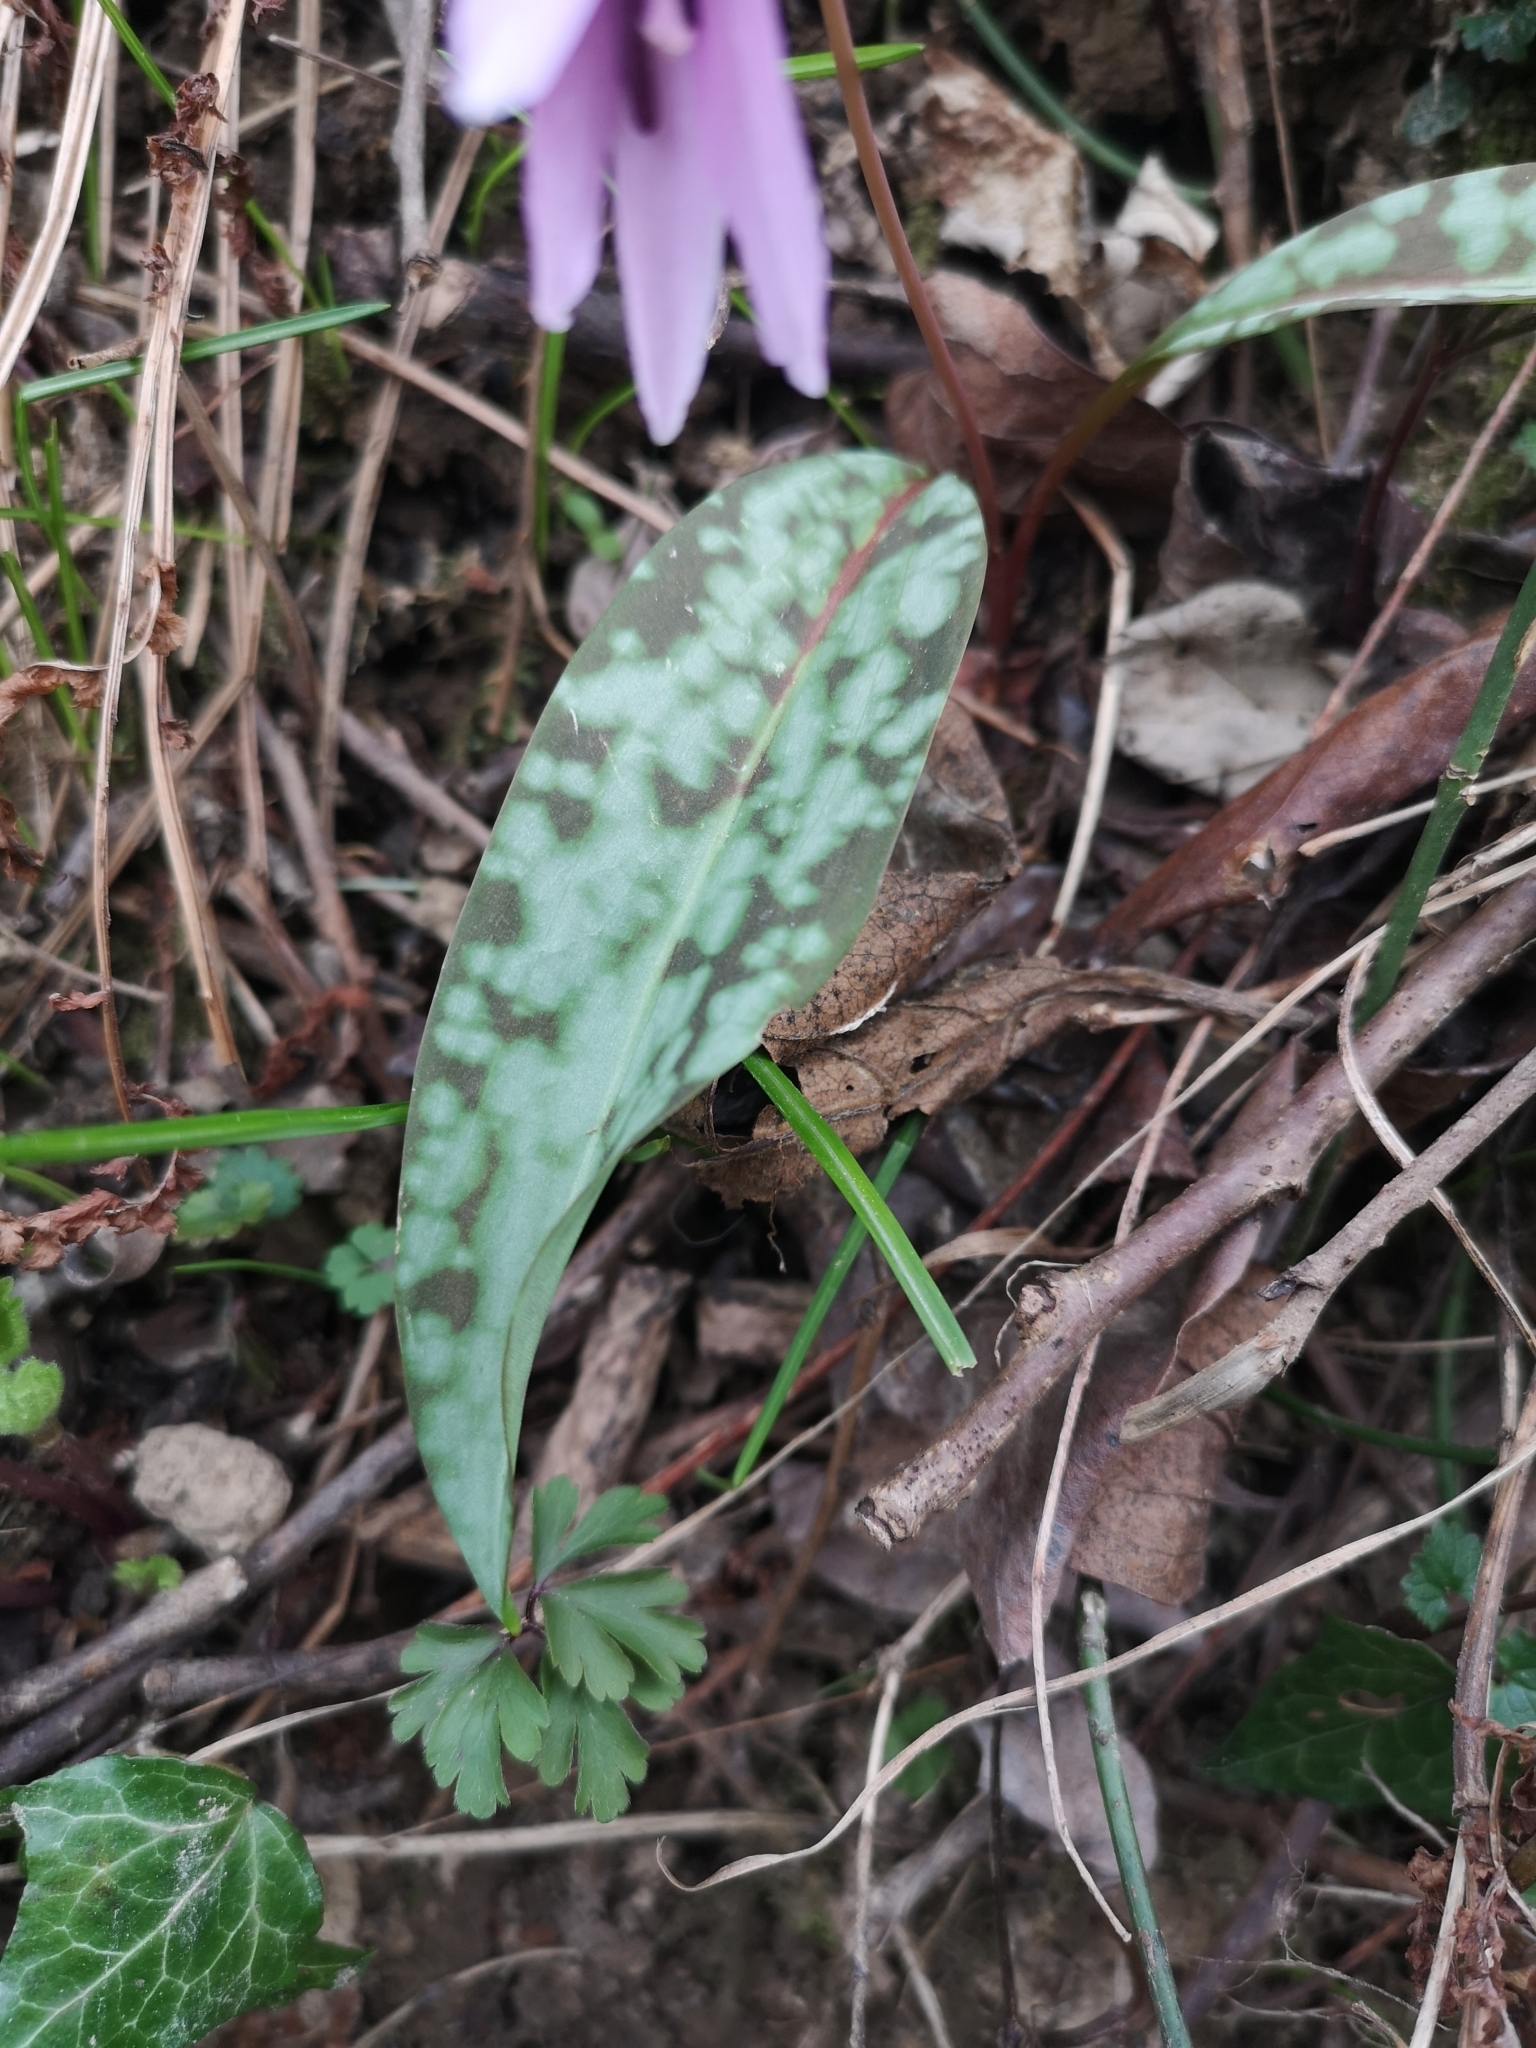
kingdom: Plantae
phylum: Tracheophyta
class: Liliopsida
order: Liliales
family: Liliaceae
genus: Erythronium
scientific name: Erythronium dens-canis
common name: Dog's-tooth-violet
